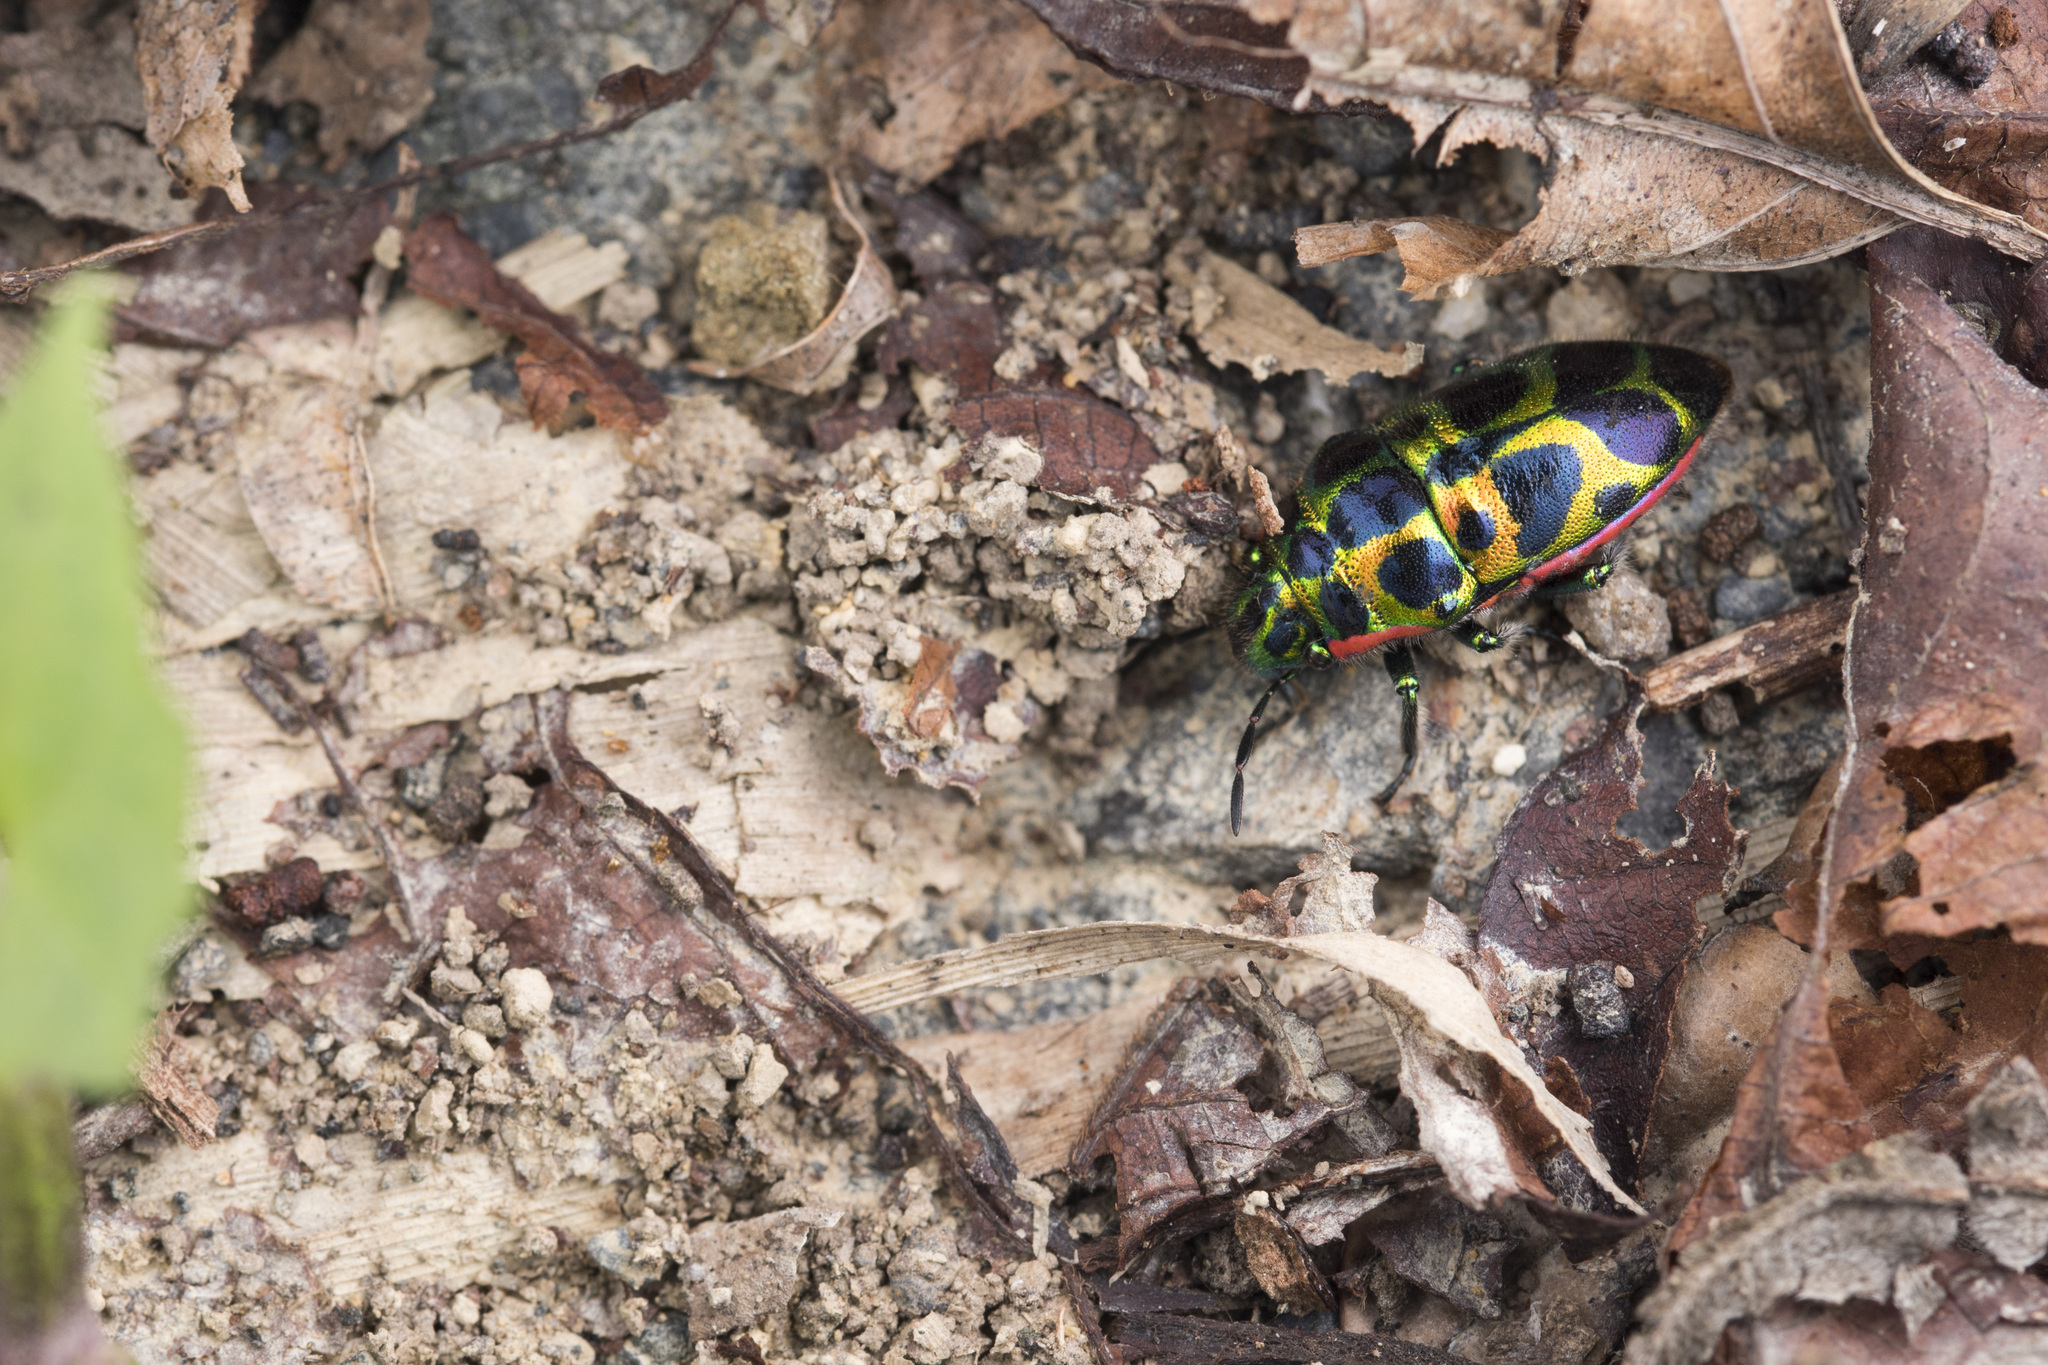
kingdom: Animalia
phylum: Arthropoda
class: Insecta
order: Hemiptera
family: Scutelleridae
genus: Brachyaulax
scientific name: Brachyaulax cyaneovitta
